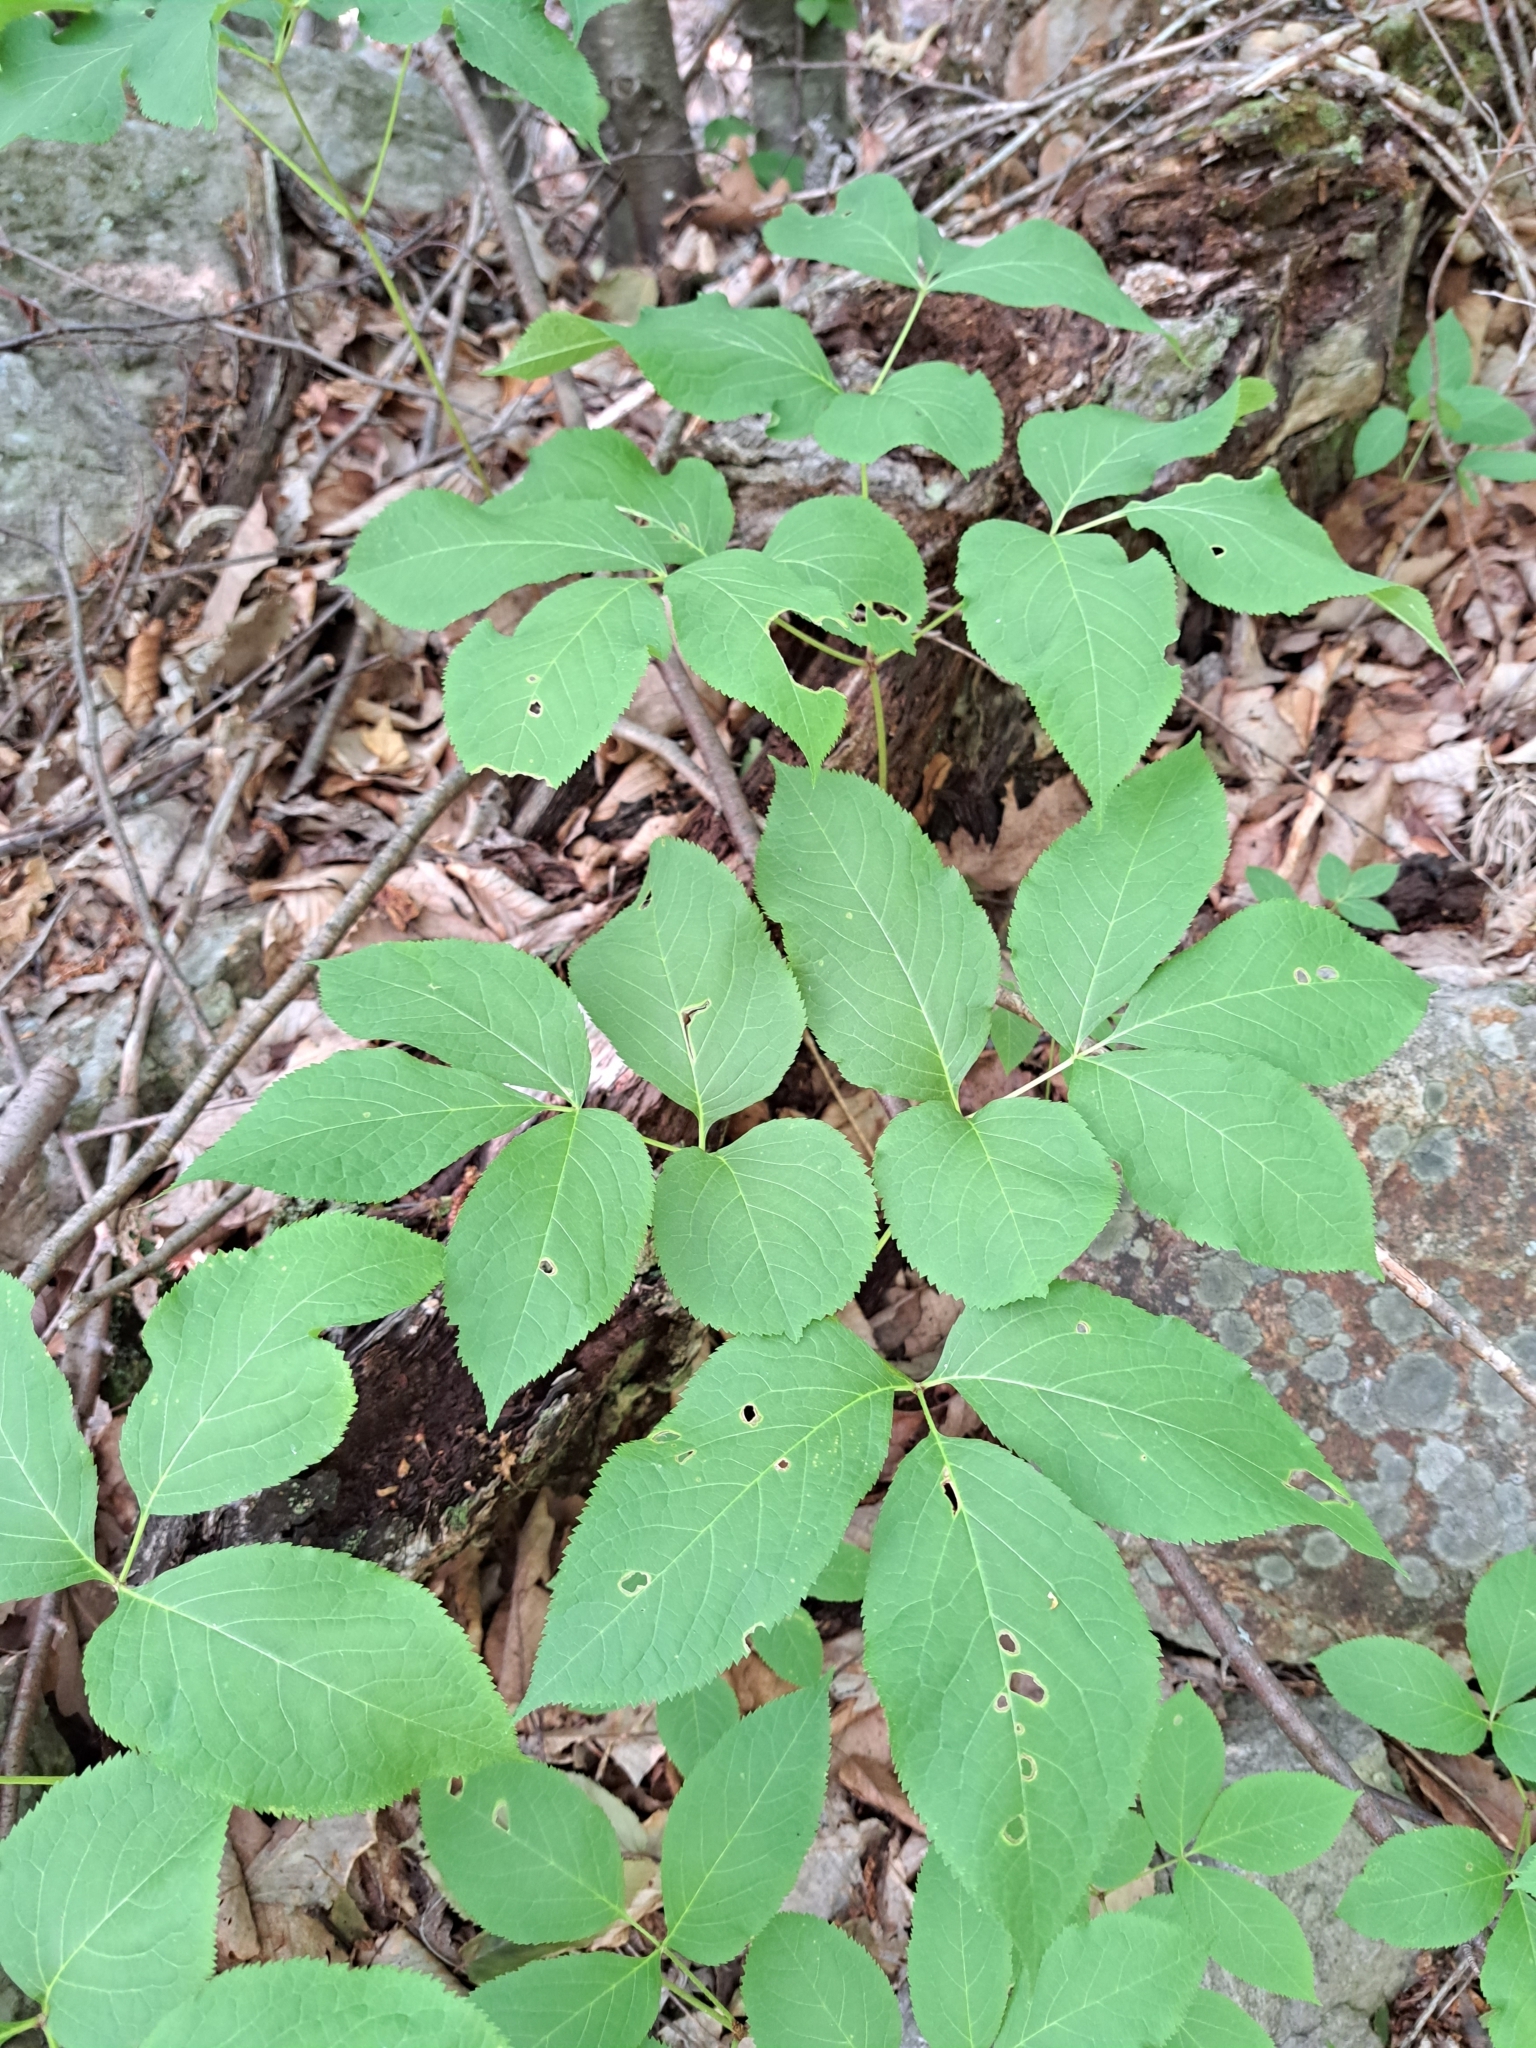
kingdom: Plantae
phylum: Tracheophyta
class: Magnoliopsida
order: Apiales
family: Araliaceae
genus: Aralia
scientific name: Aralia nudicaulis
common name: Wild sarsaparilla
